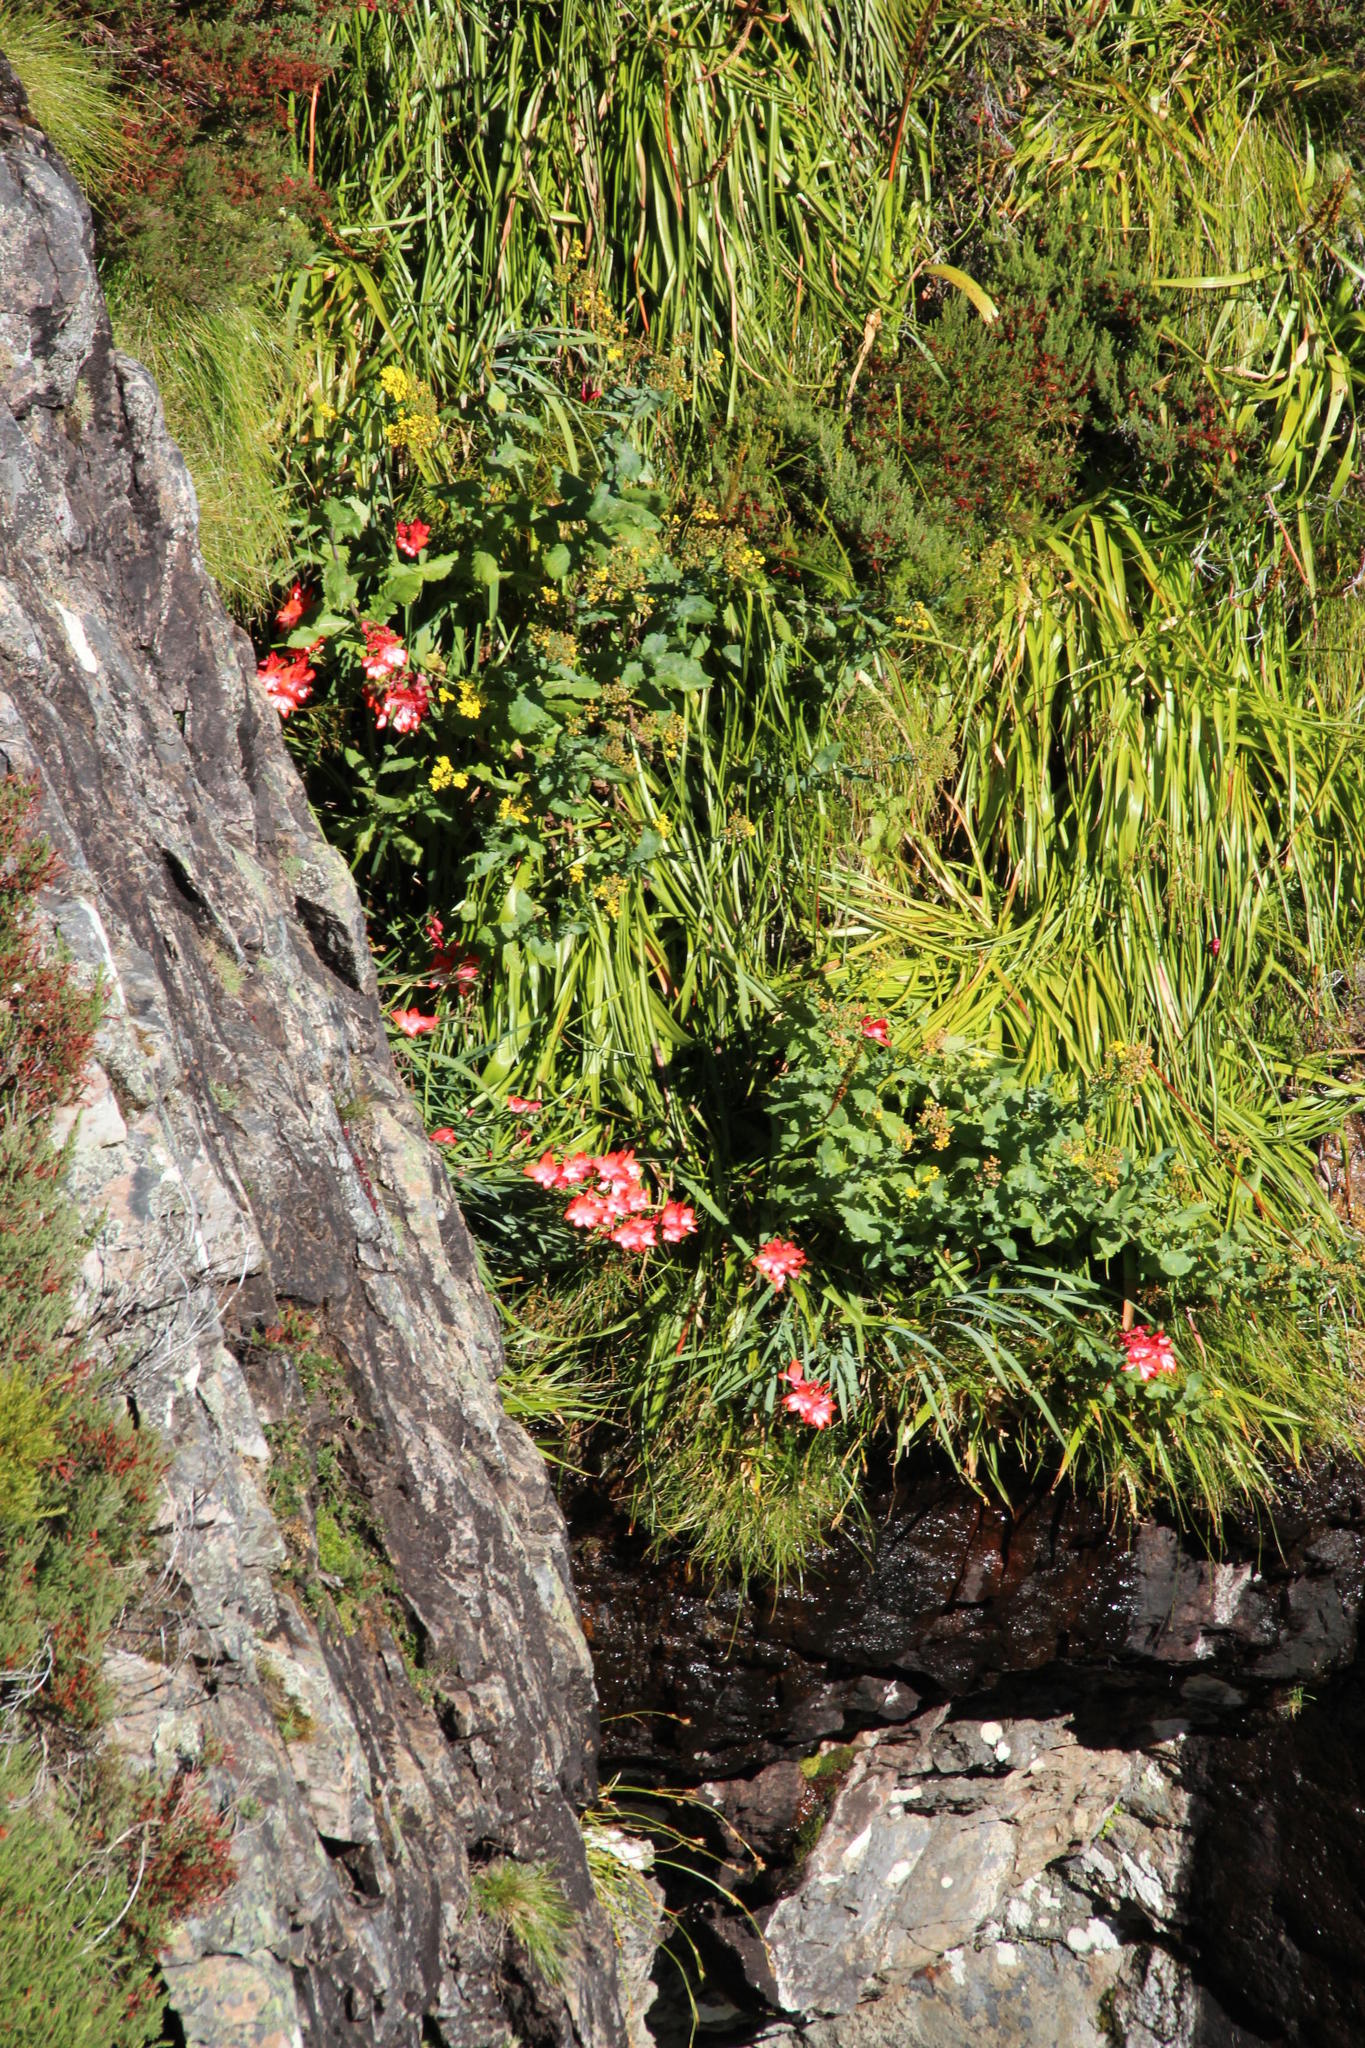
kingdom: Plantae
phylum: Tracheophyta
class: Liliopsida
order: Asparagales
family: Iridaceae
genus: Gladiolus
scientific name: Gladiolus cardinalis
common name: New year-lily
